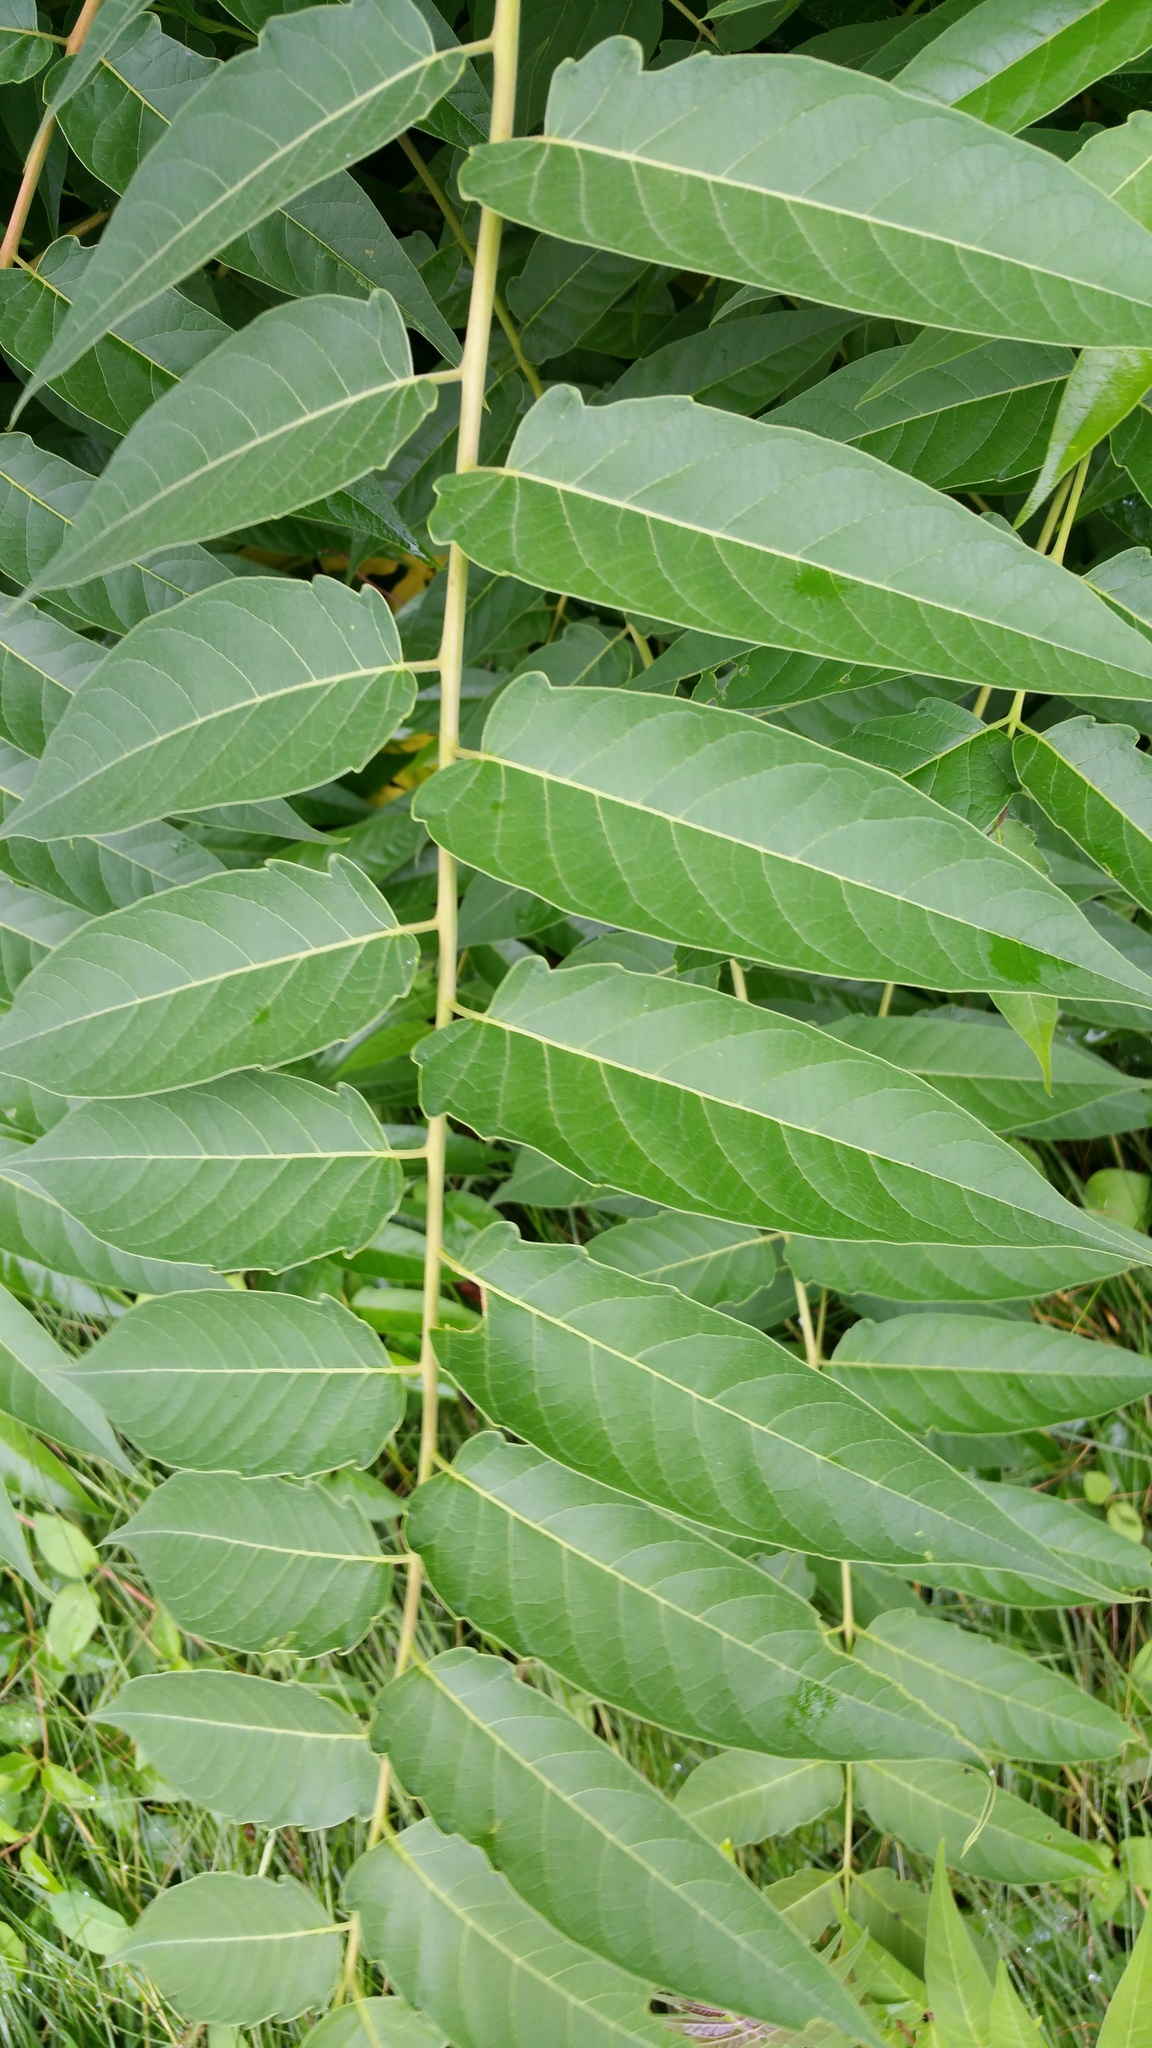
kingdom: Plantae
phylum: Tracheophyta
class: Magnoliopsida
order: Sapindales
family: Simaroubaceae
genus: Ailanthus
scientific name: Ailanthus altissima
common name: Tree-of-heaven
